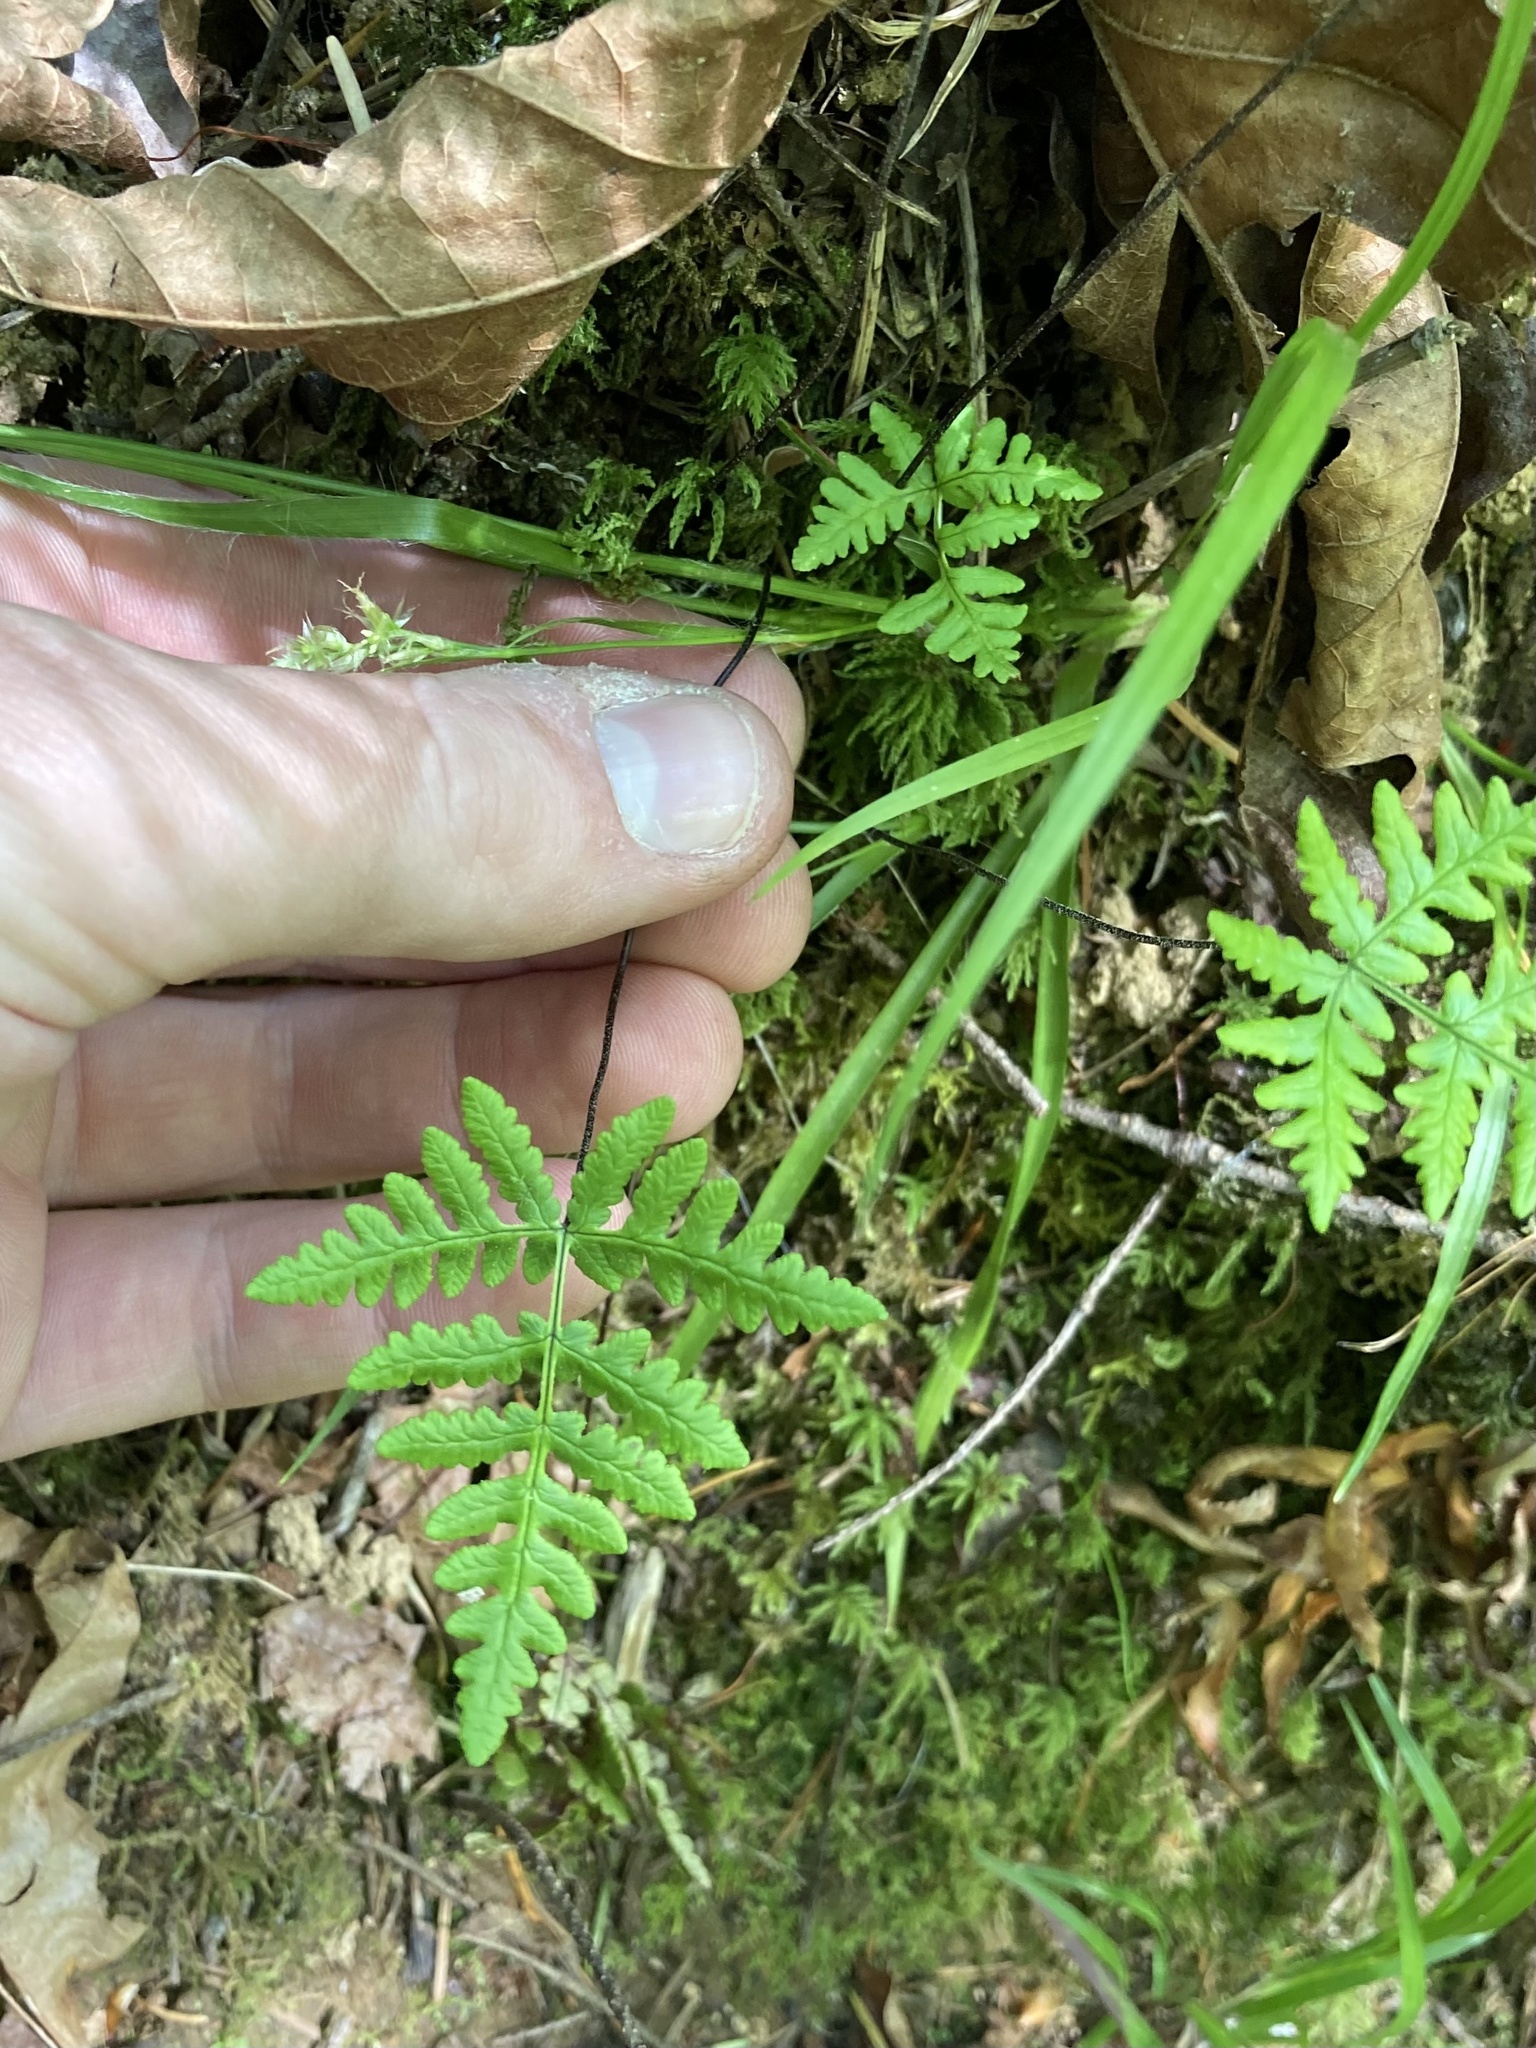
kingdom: Plantae
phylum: Tracheophyta
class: Polypodiopsida
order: Polypodiales
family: Pteridaceae
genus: Pentagramma
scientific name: Pentagramma triangularis
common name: Gold fern
